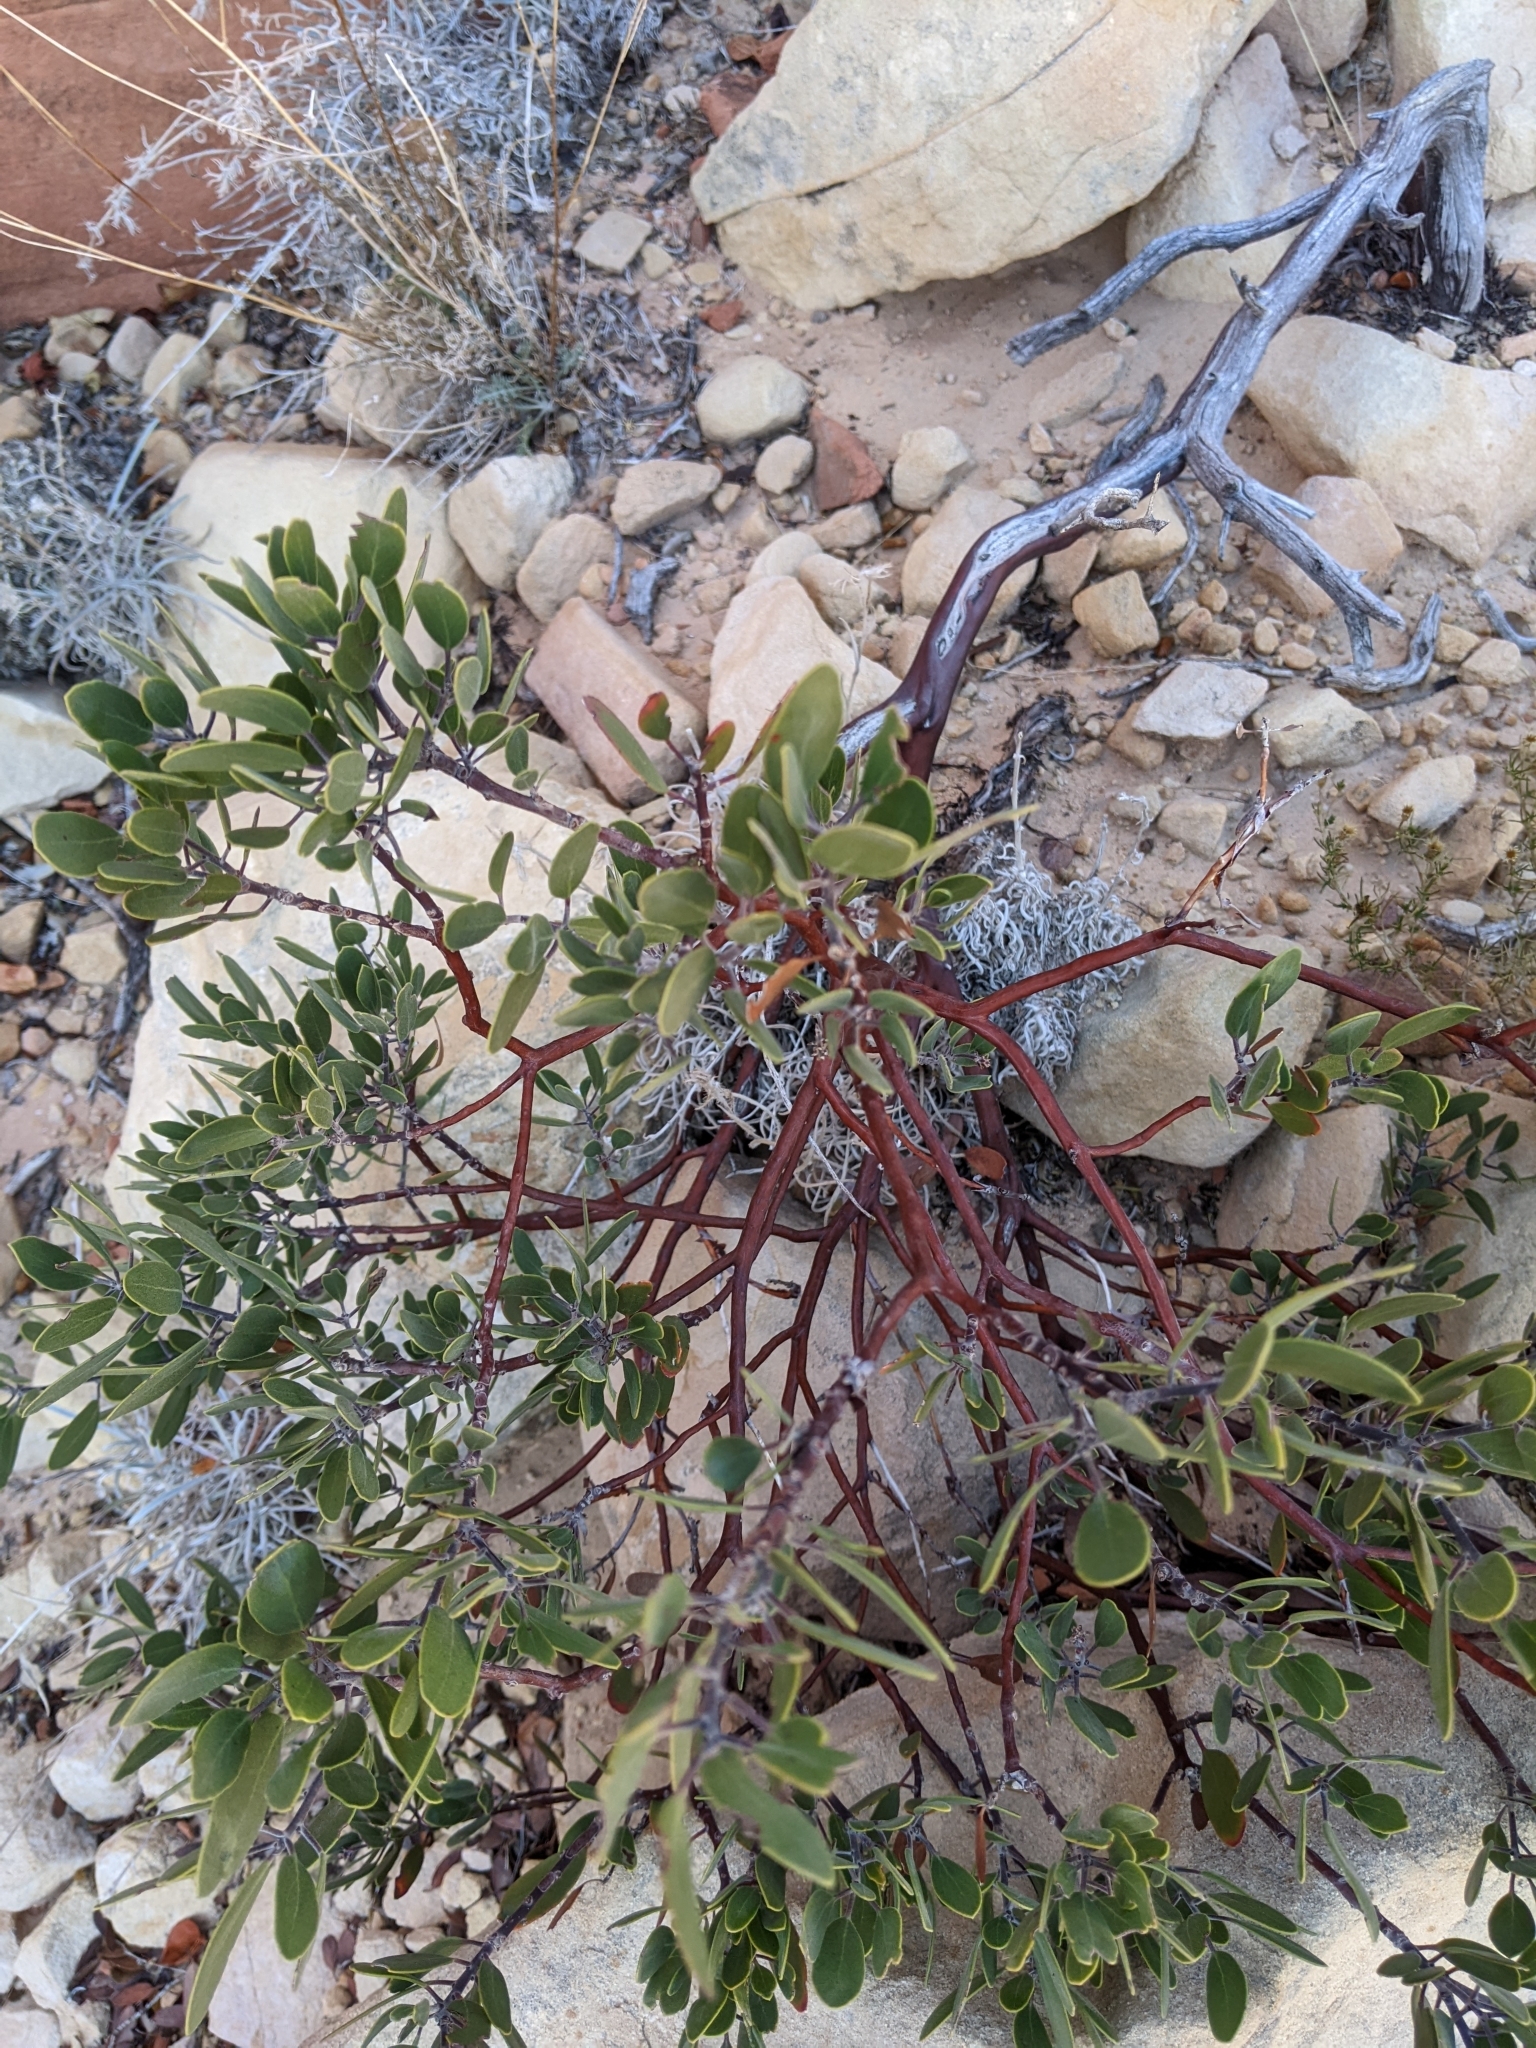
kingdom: Plantae
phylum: Tracheophyta
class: Magnoliopsida
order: Ericales
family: Ericaceae
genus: Arctostaphylos
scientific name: Arctostaphylos pungens
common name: Mexican manzanita
